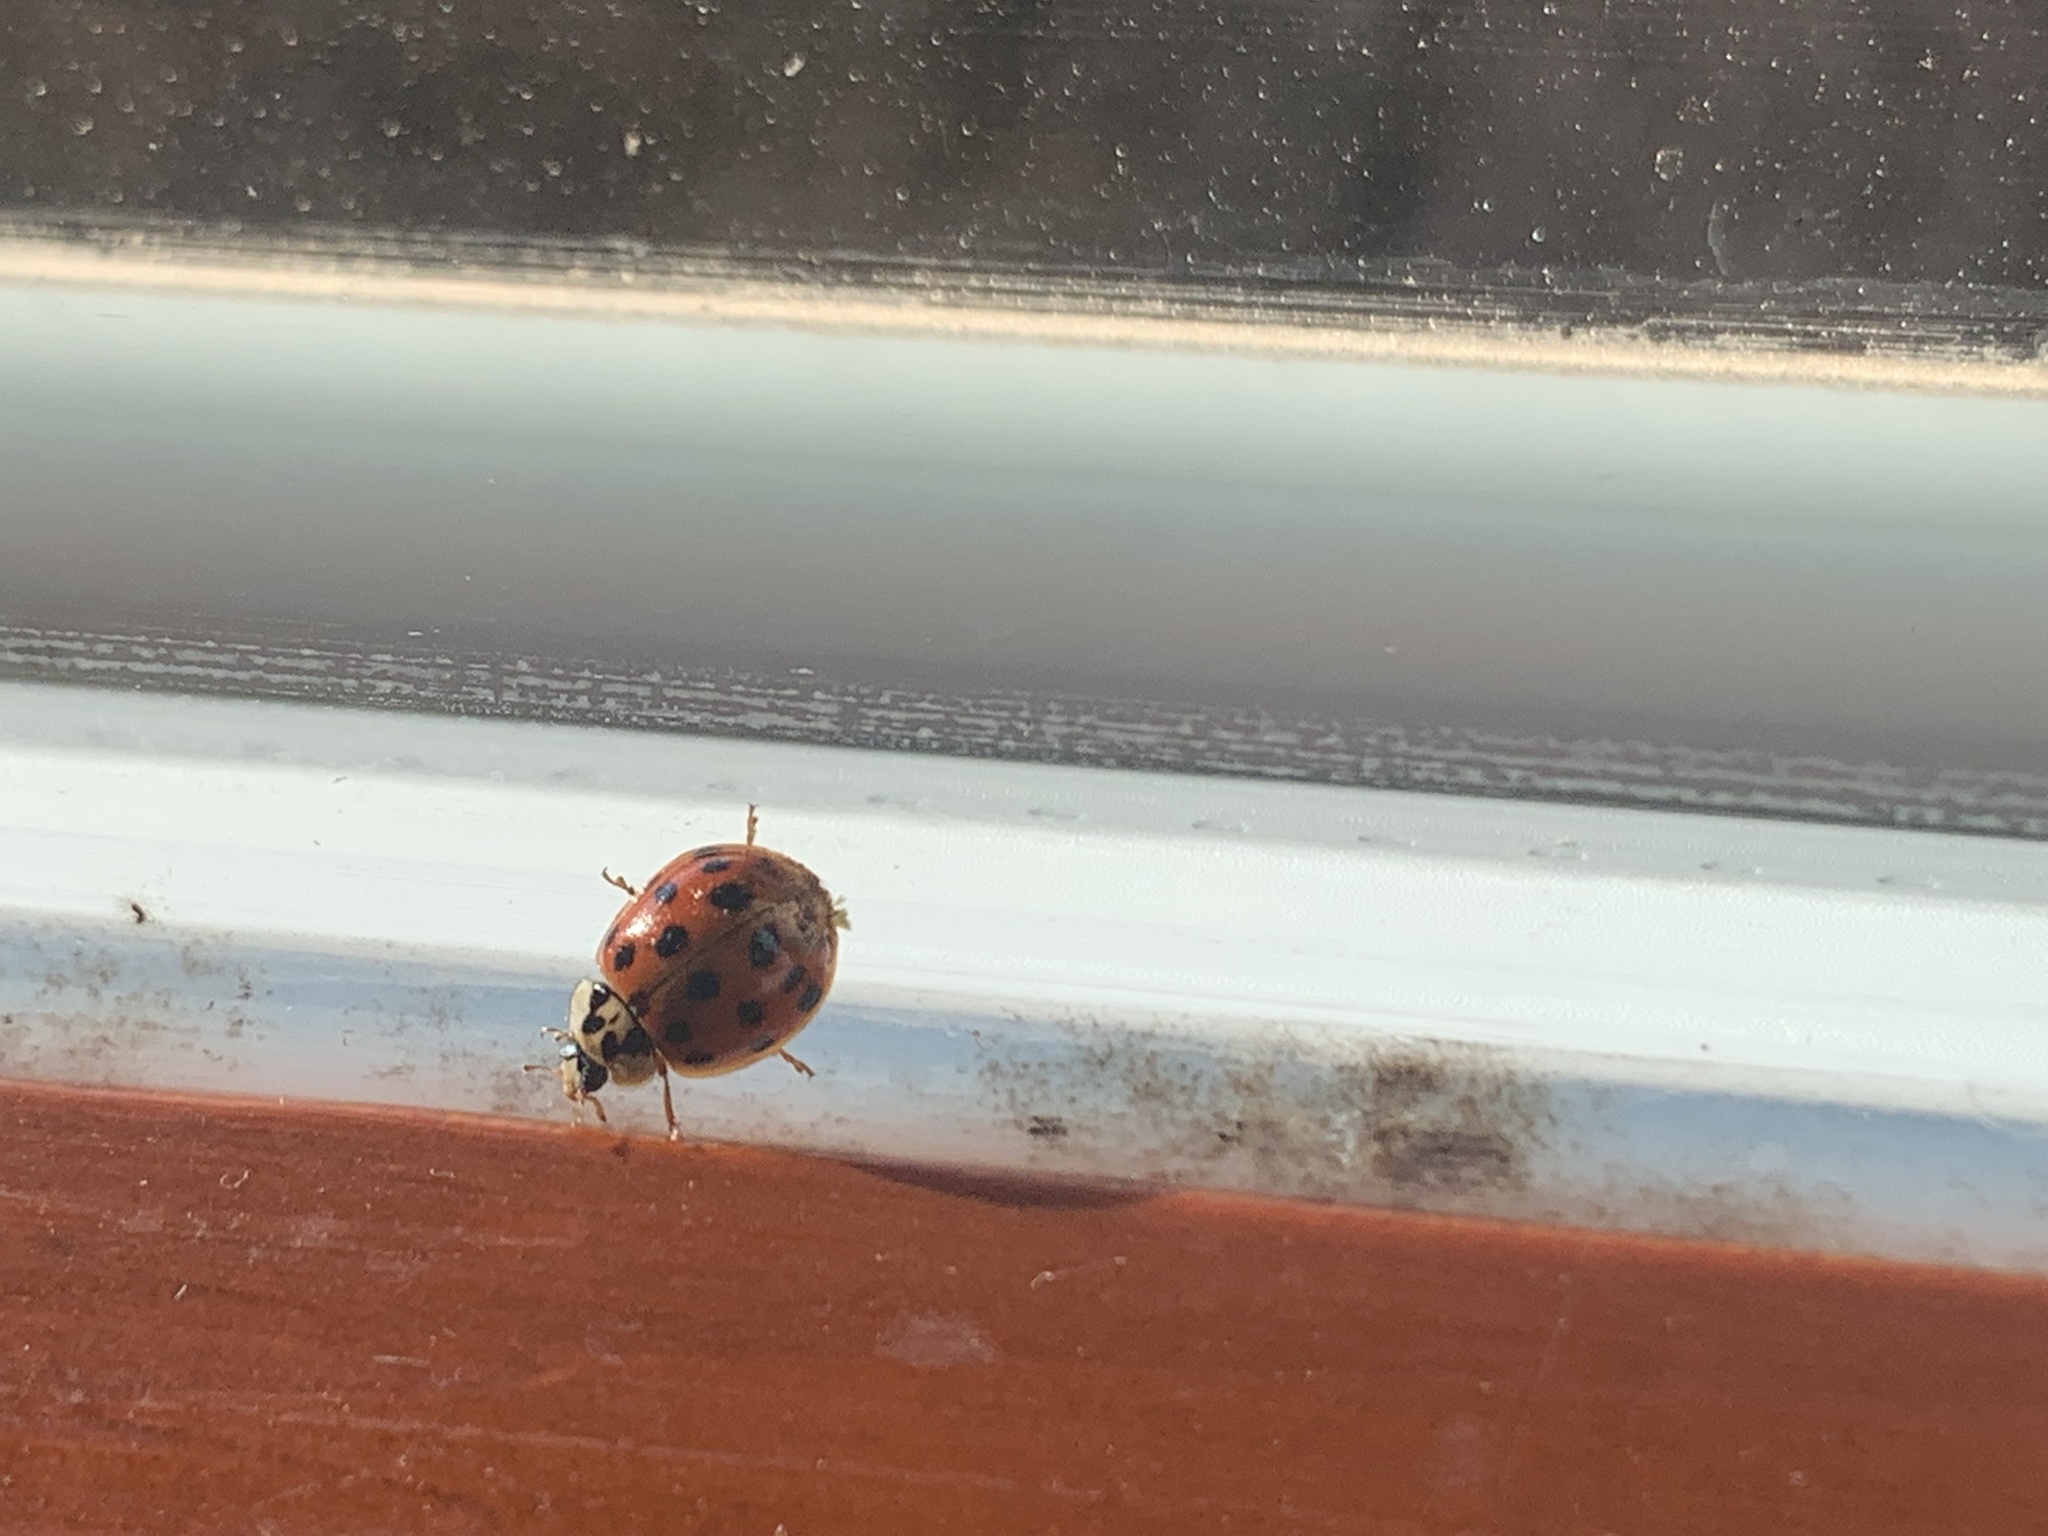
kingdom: Animalia
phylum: Arthropoda
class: Insecta
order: Coleoptera
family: Coccinellidae
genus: Harmonia
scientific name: Harmonia axyridis
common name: Harlequin ladybird
